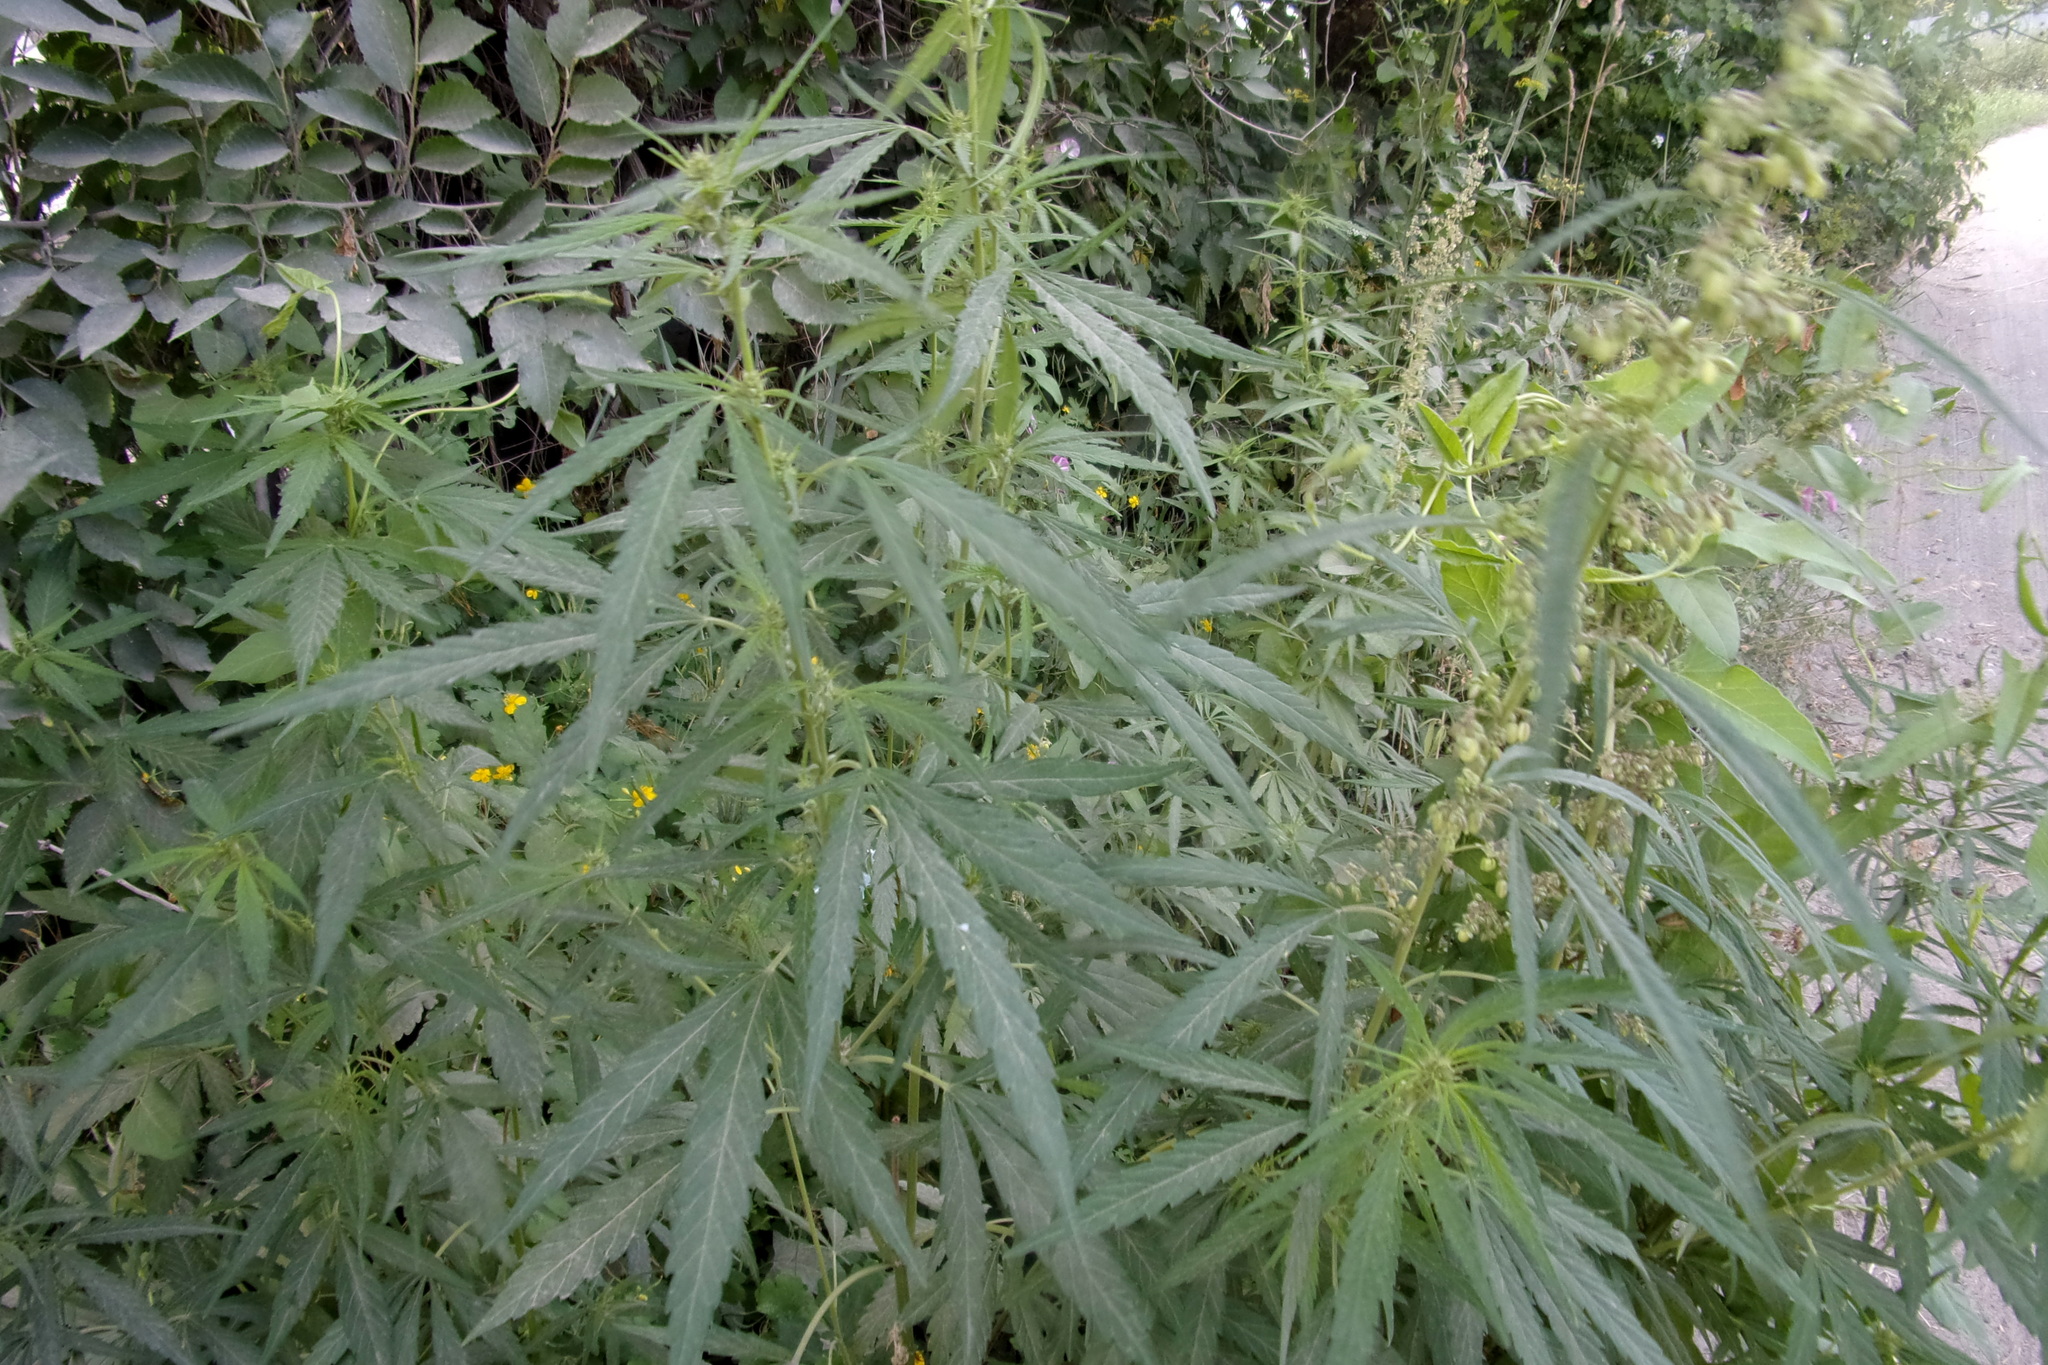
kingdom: Plantae
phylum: Tracheophyta
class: Magnoliopsida
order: Rosales
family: Cannabaceae
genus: Cannabis
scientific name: Cannabis sativa
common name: Hemp
